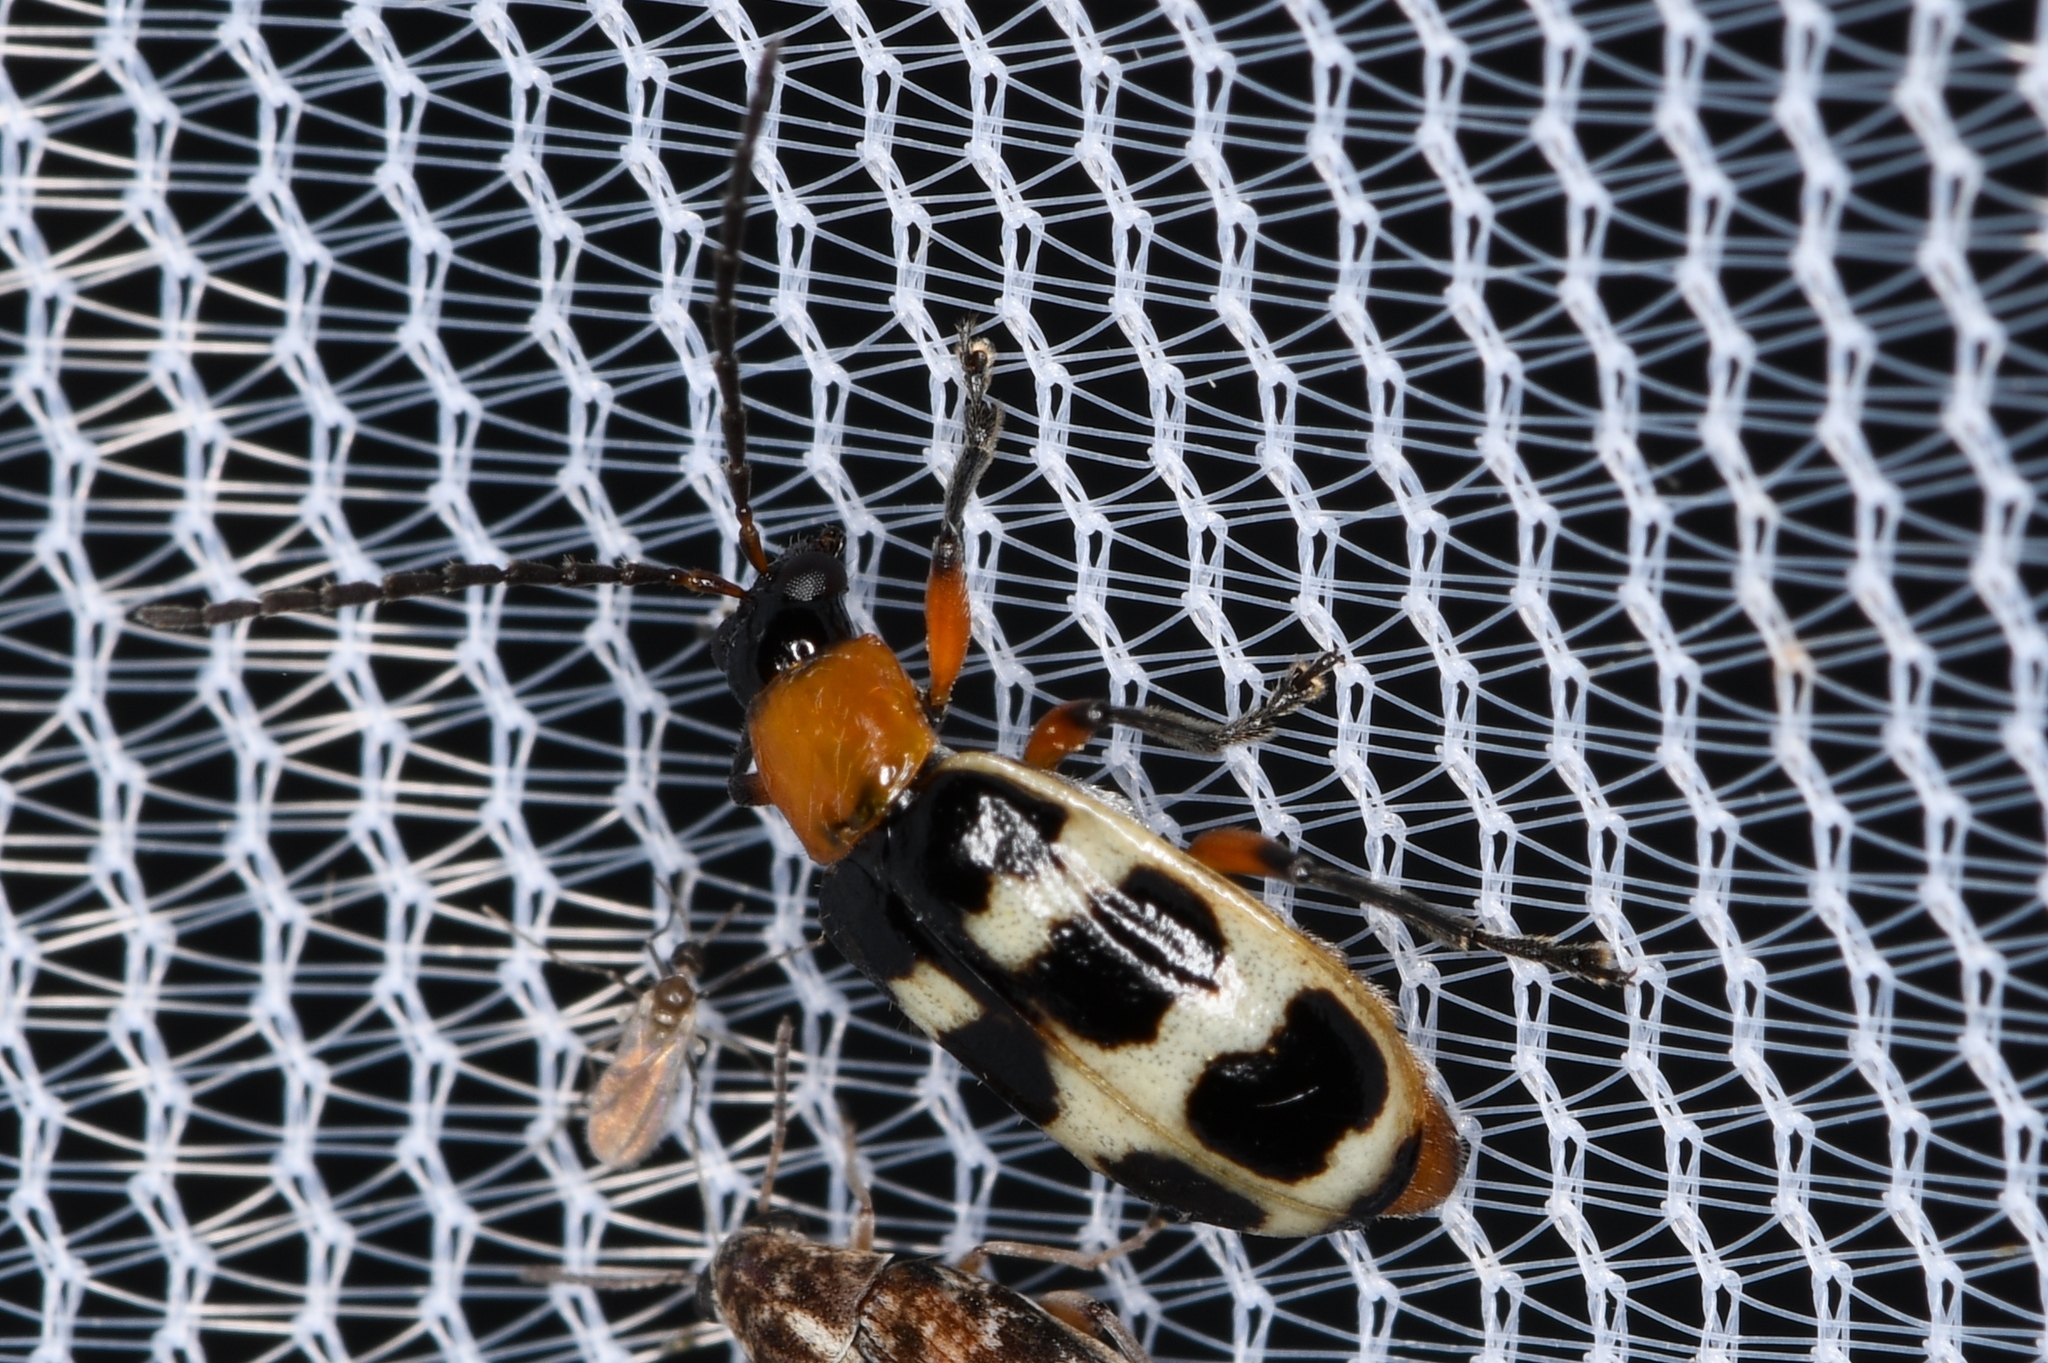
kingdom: Animalia
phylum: Arthropoda
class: Insecta
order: Coleoptera
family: Chrysomelidae
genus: Paranapiacaba
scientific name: Paranapiacaba tricincta
